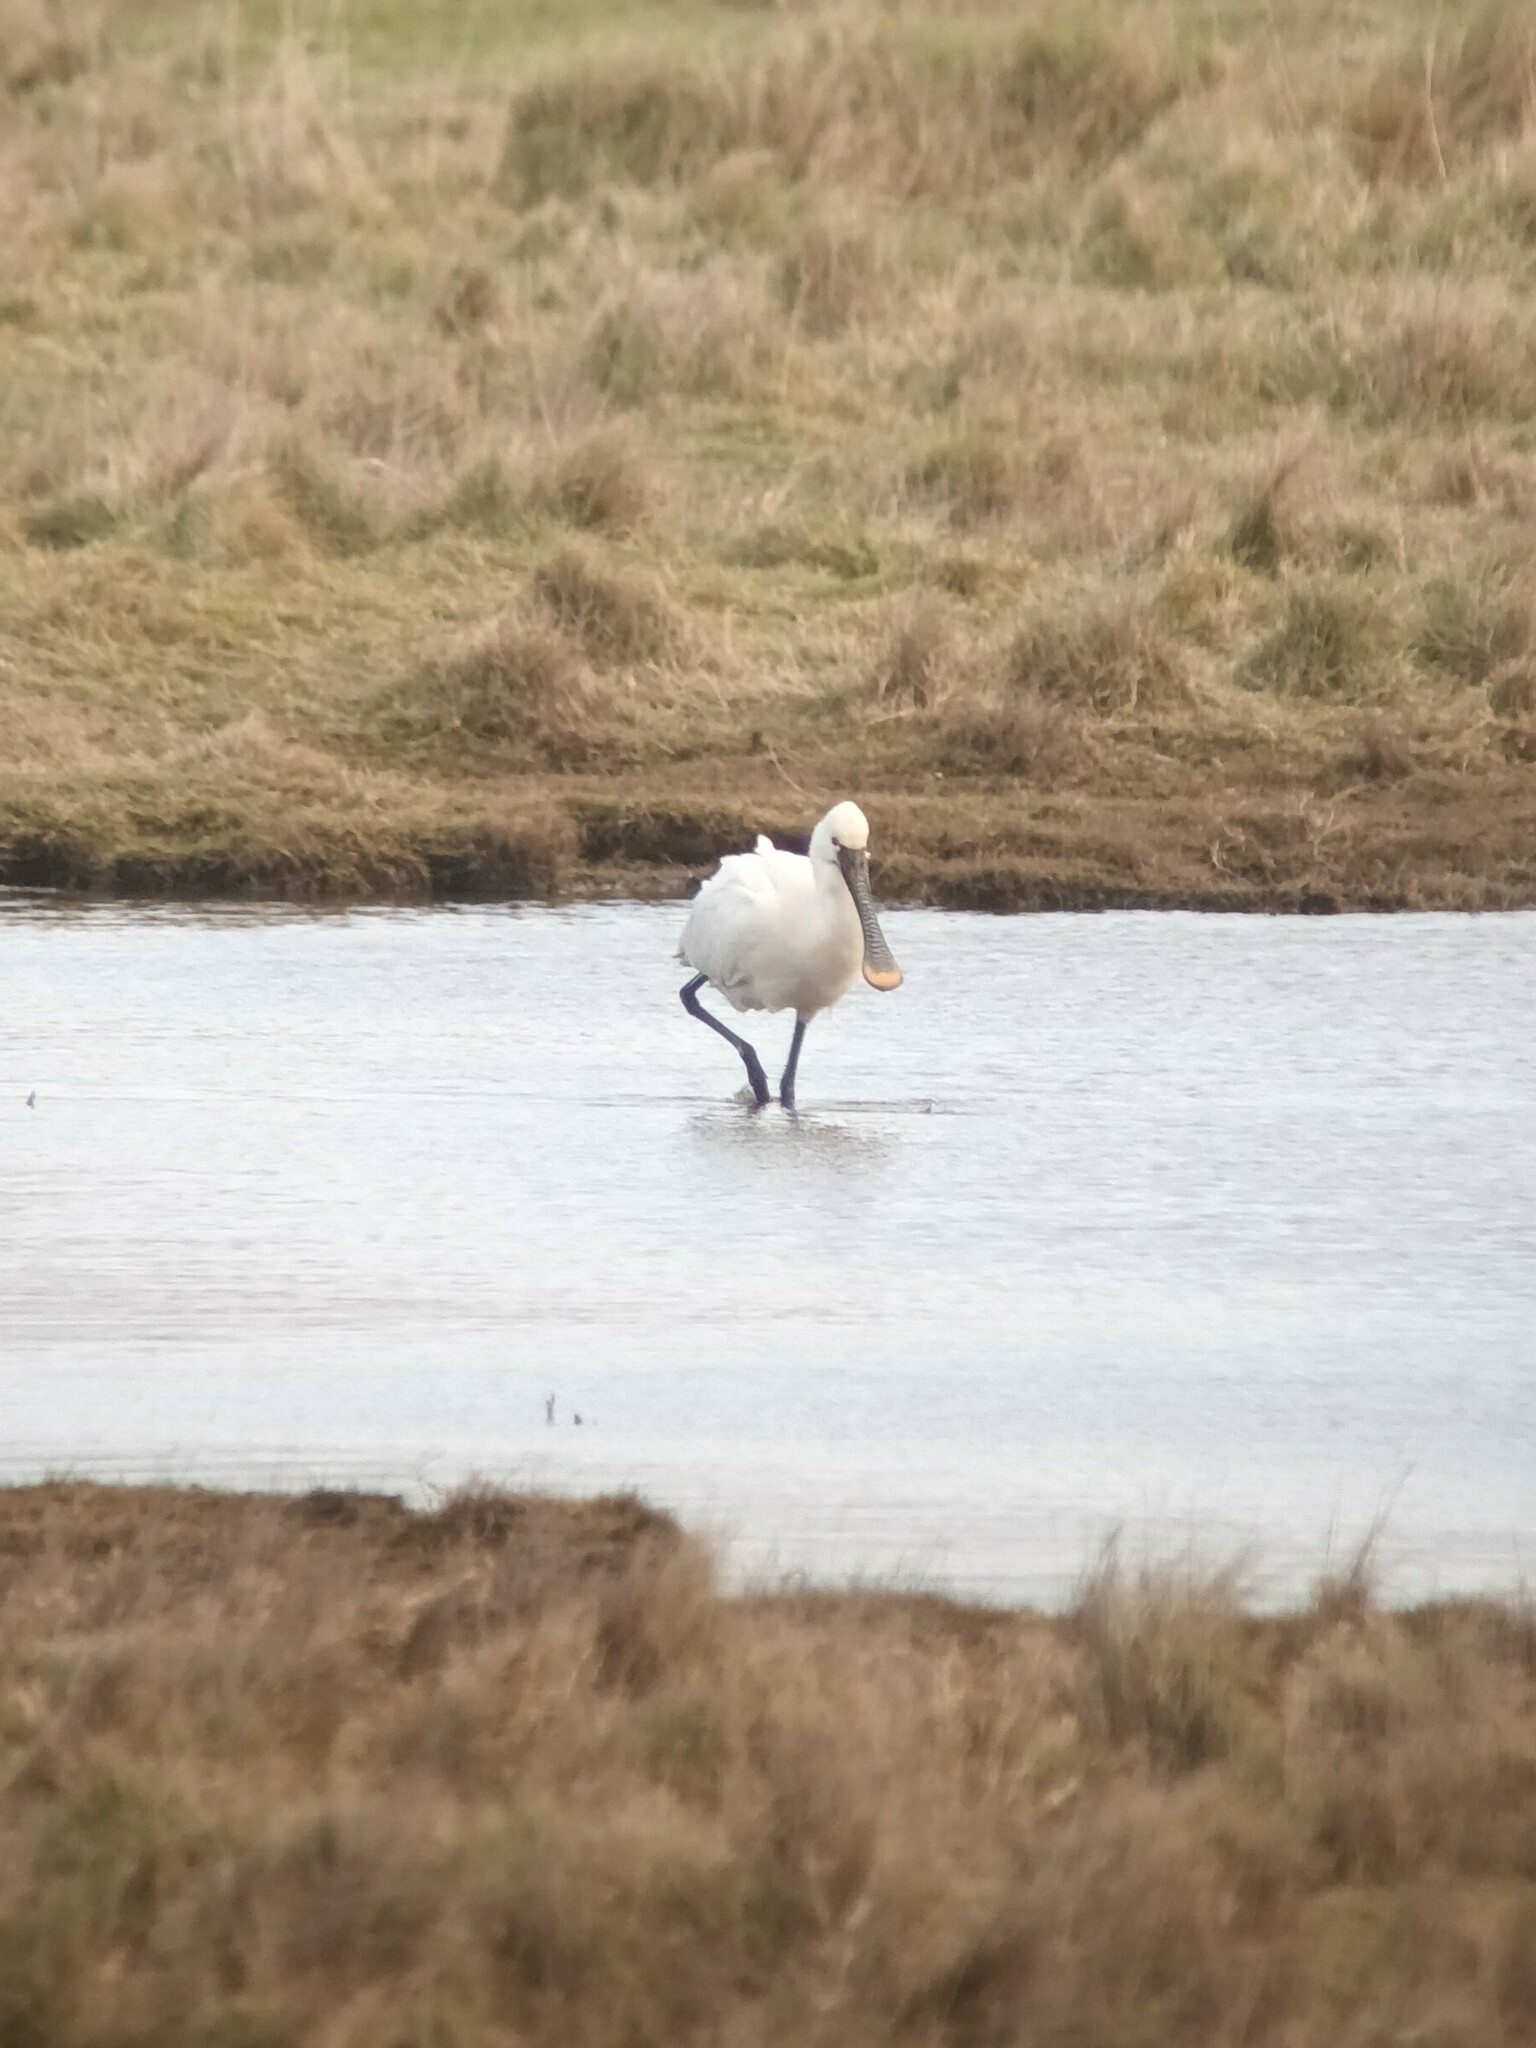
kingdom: Animalia
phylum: Chordata
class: Aves
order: Pelecaniformes
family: Threskiornithidae
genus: Platalea
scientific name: Platalea leucorodia
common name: Eurasian spoonbill
